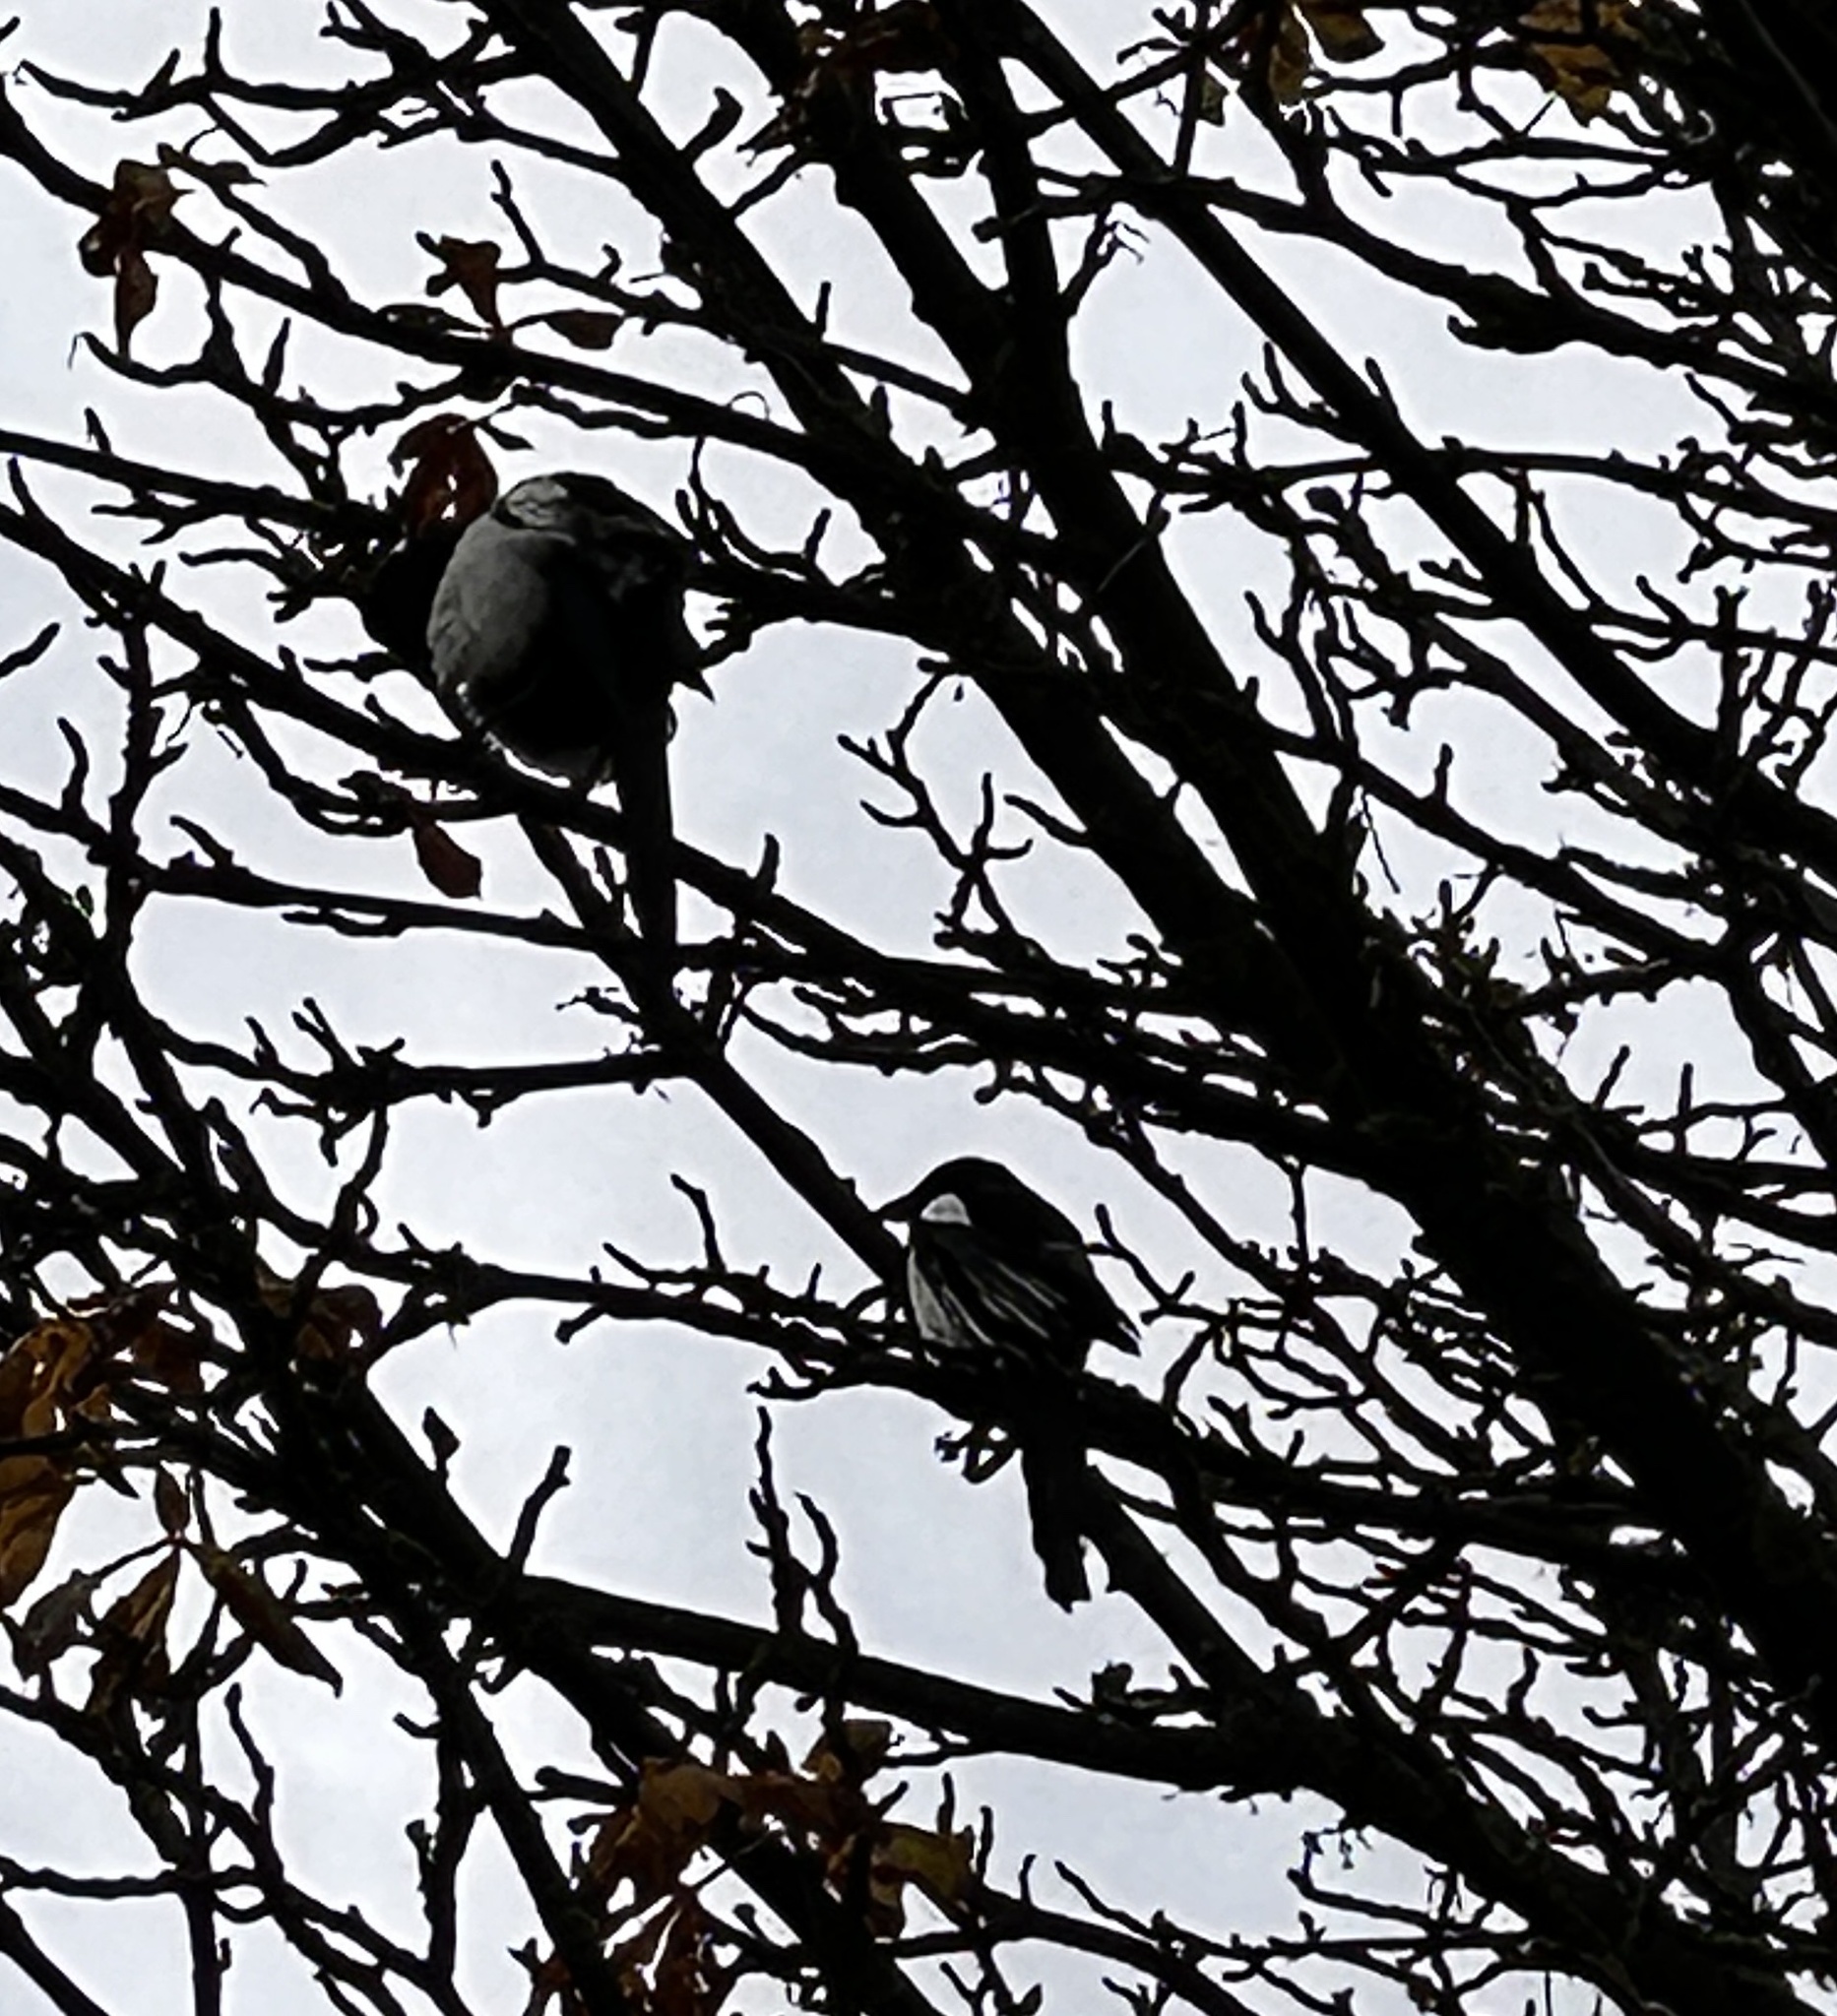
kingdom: Animalia
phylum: Chordata
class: Aves
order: Passeriformes
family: Corvidae
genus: Pica
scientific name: Pica pica
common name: Eurasian magpie
